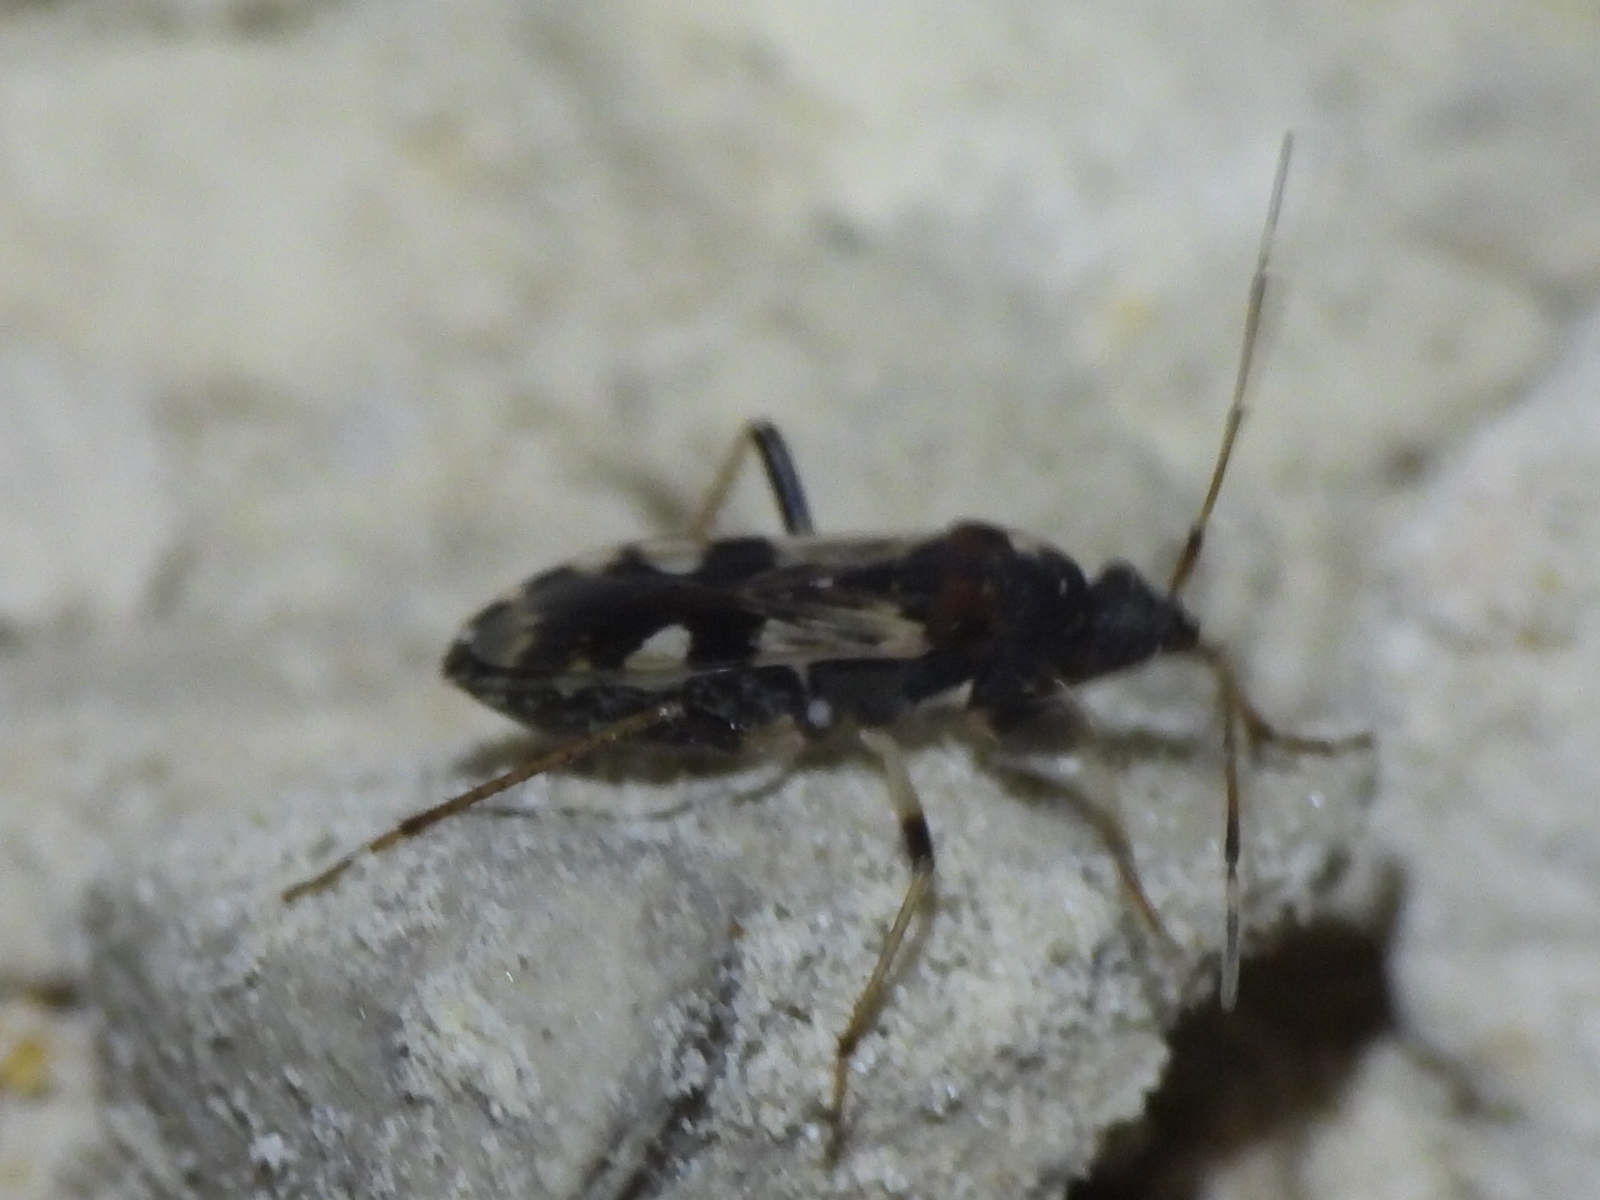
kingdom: Animalia
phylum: Arthropoda
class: Insecta
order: Hemiptera
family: Rhyparochromidae
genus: Dieuches
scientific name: Dieuches armipes
